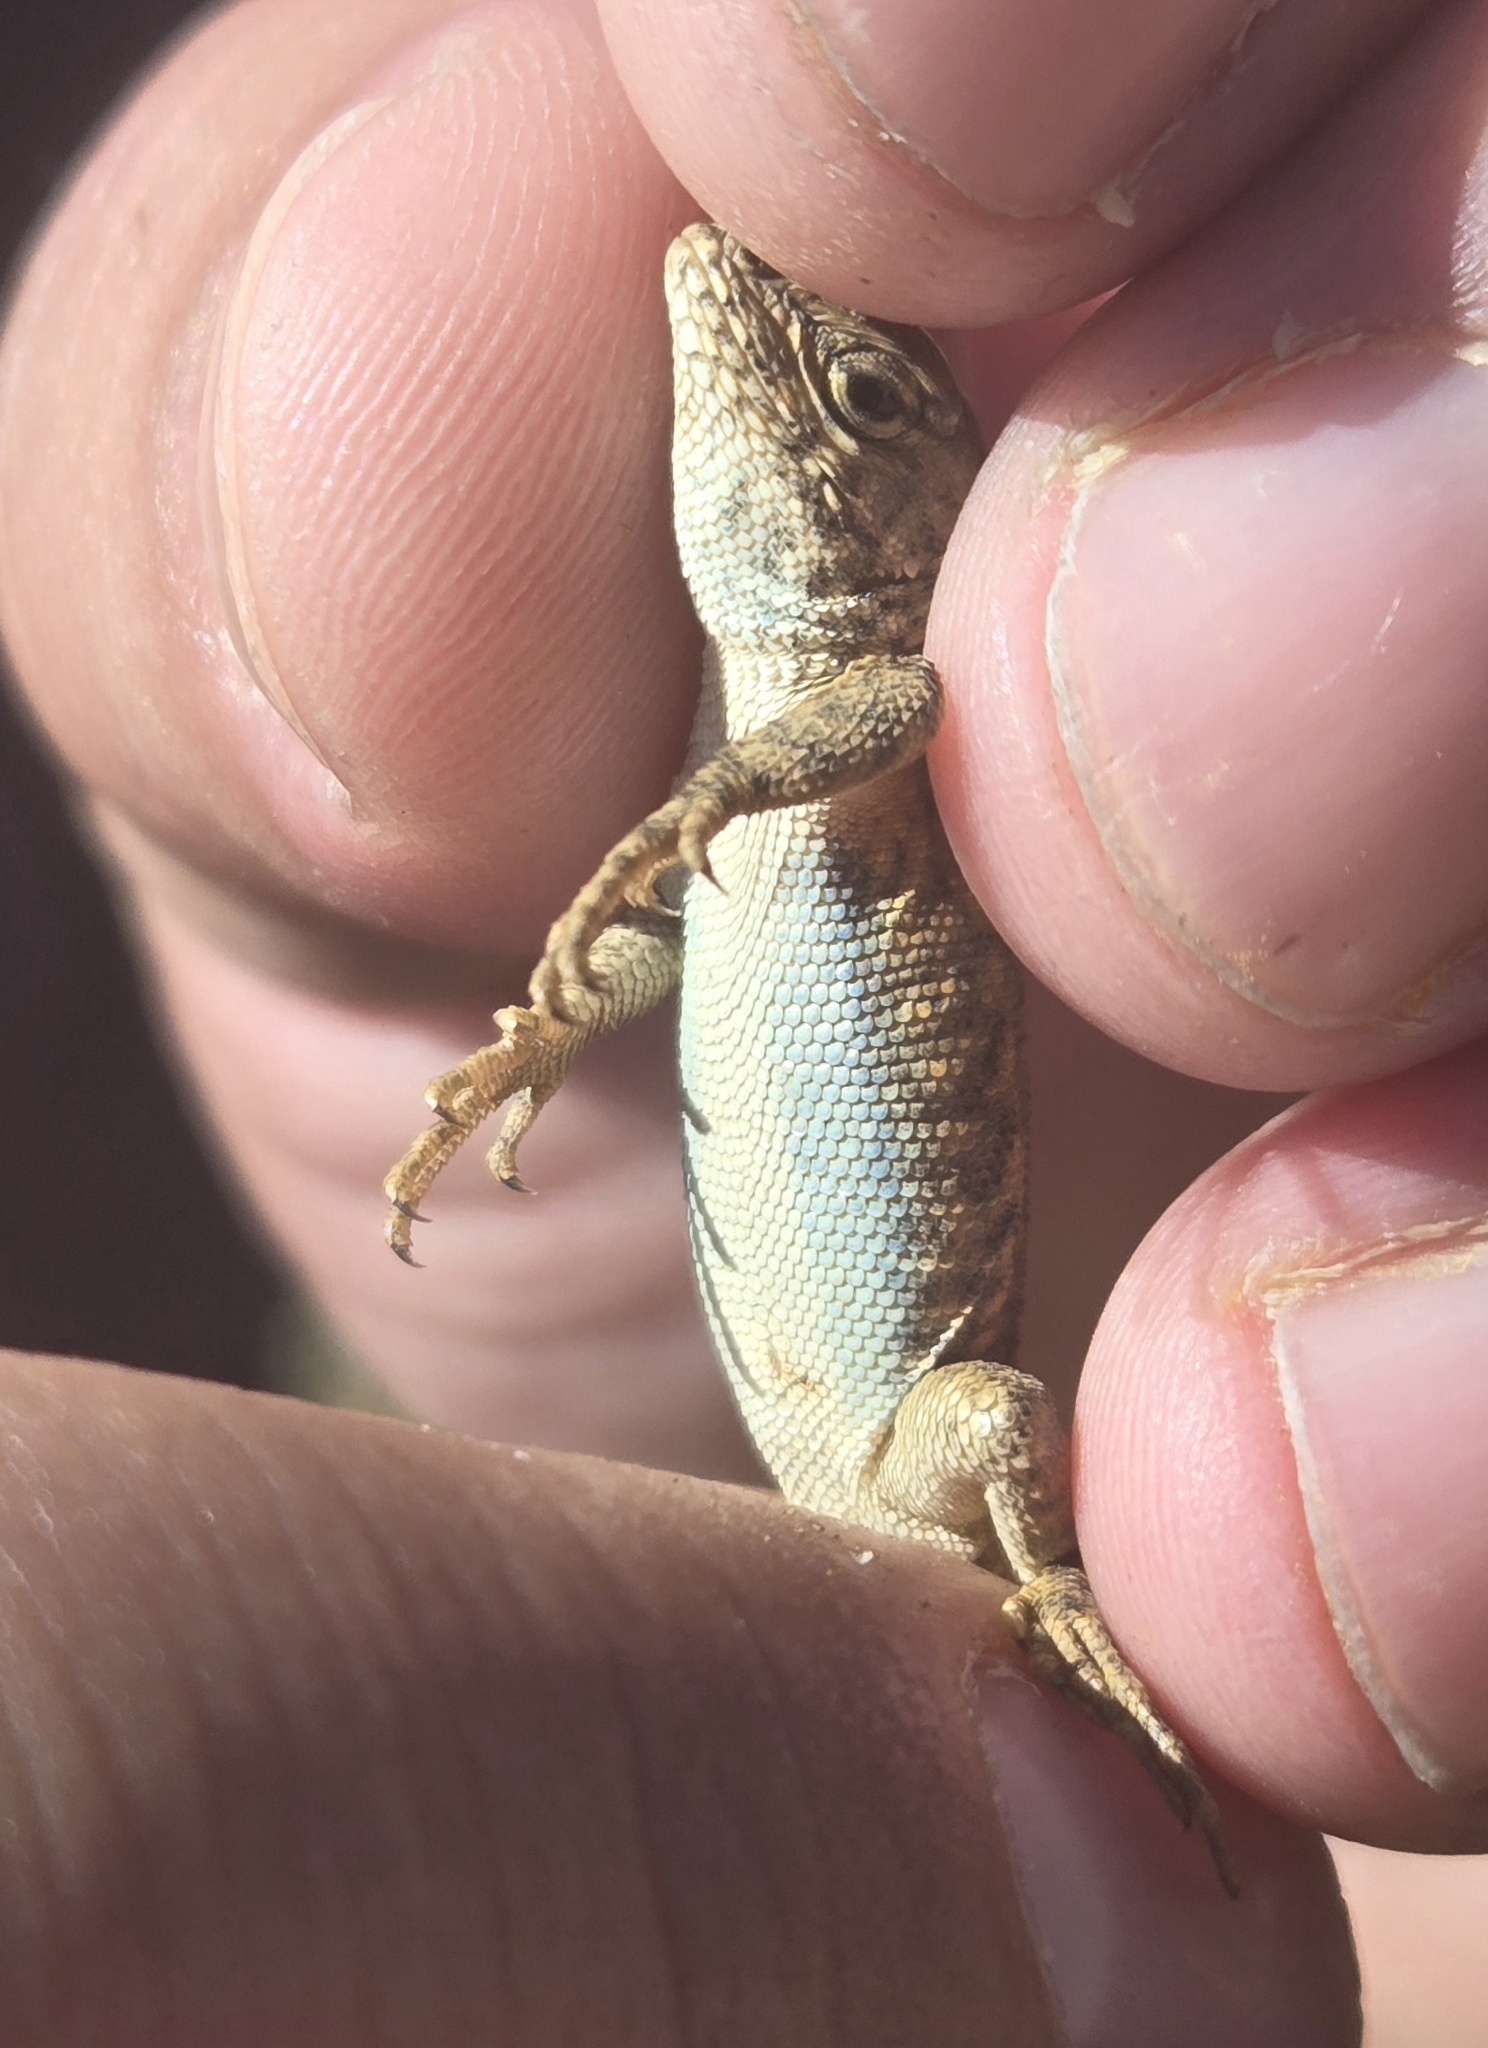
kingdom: Animalia
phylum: Chordata
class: Squamata
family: Phrynosomatidae
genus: Sceloporus
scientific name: Sceloporus graciosus
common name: Sagebrush lizard
